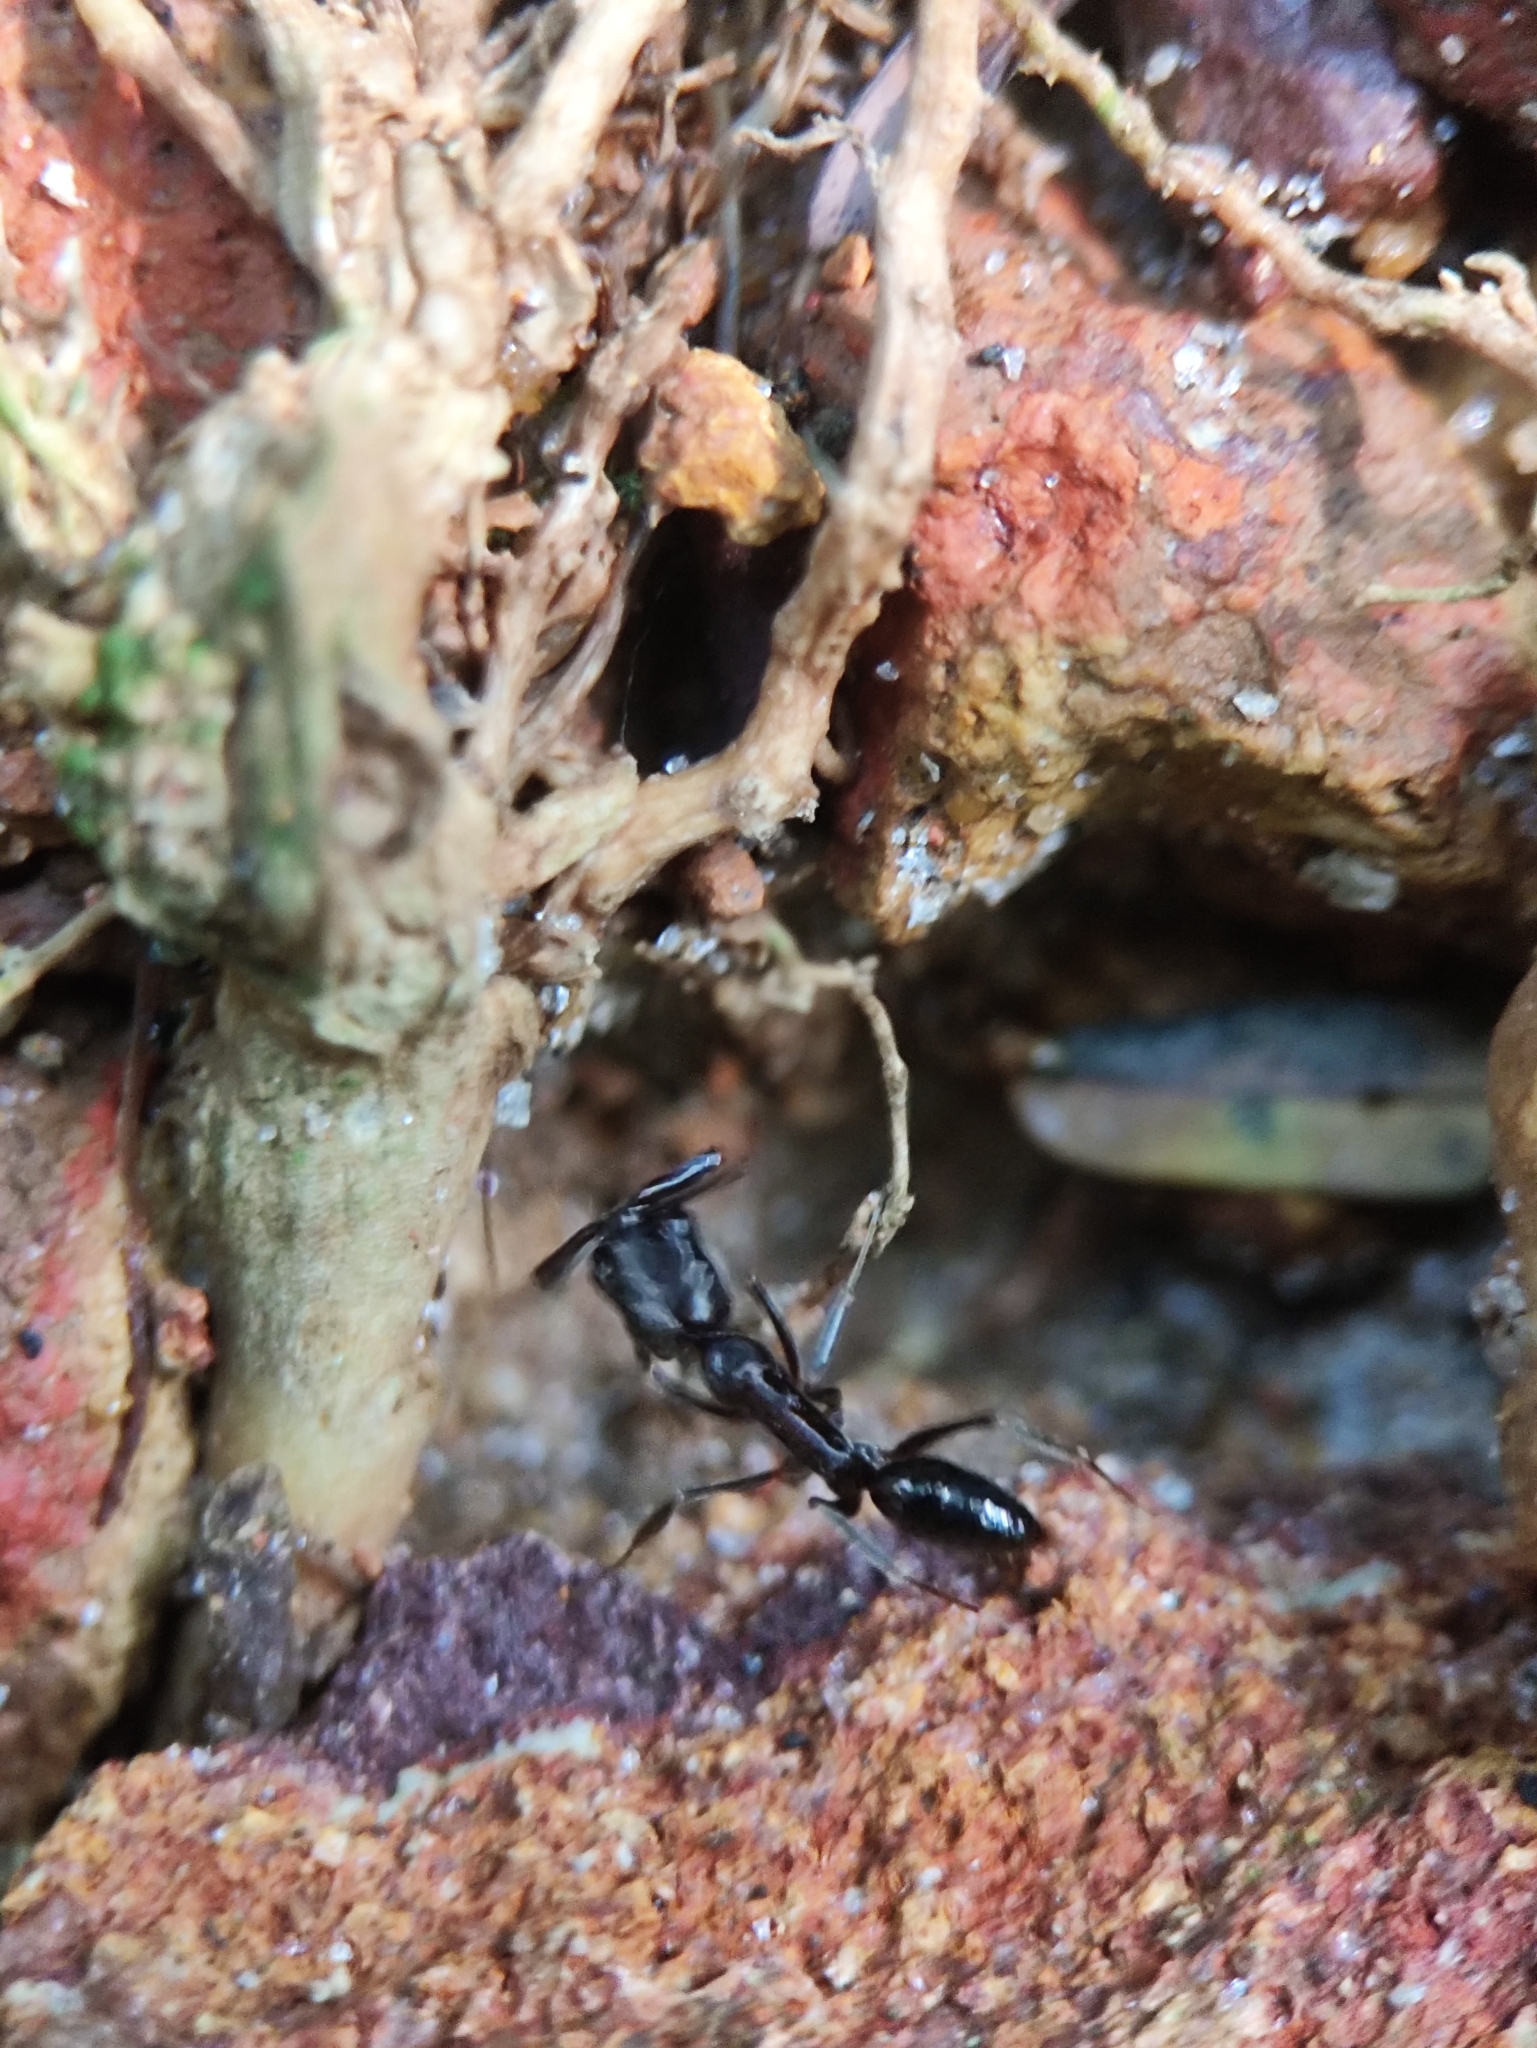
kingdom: Animalia
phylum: Arthropoda
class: Insecta
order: Hymenoptera
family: Formicidae
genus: Odontomachus
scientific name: Odontomachus simillimus
